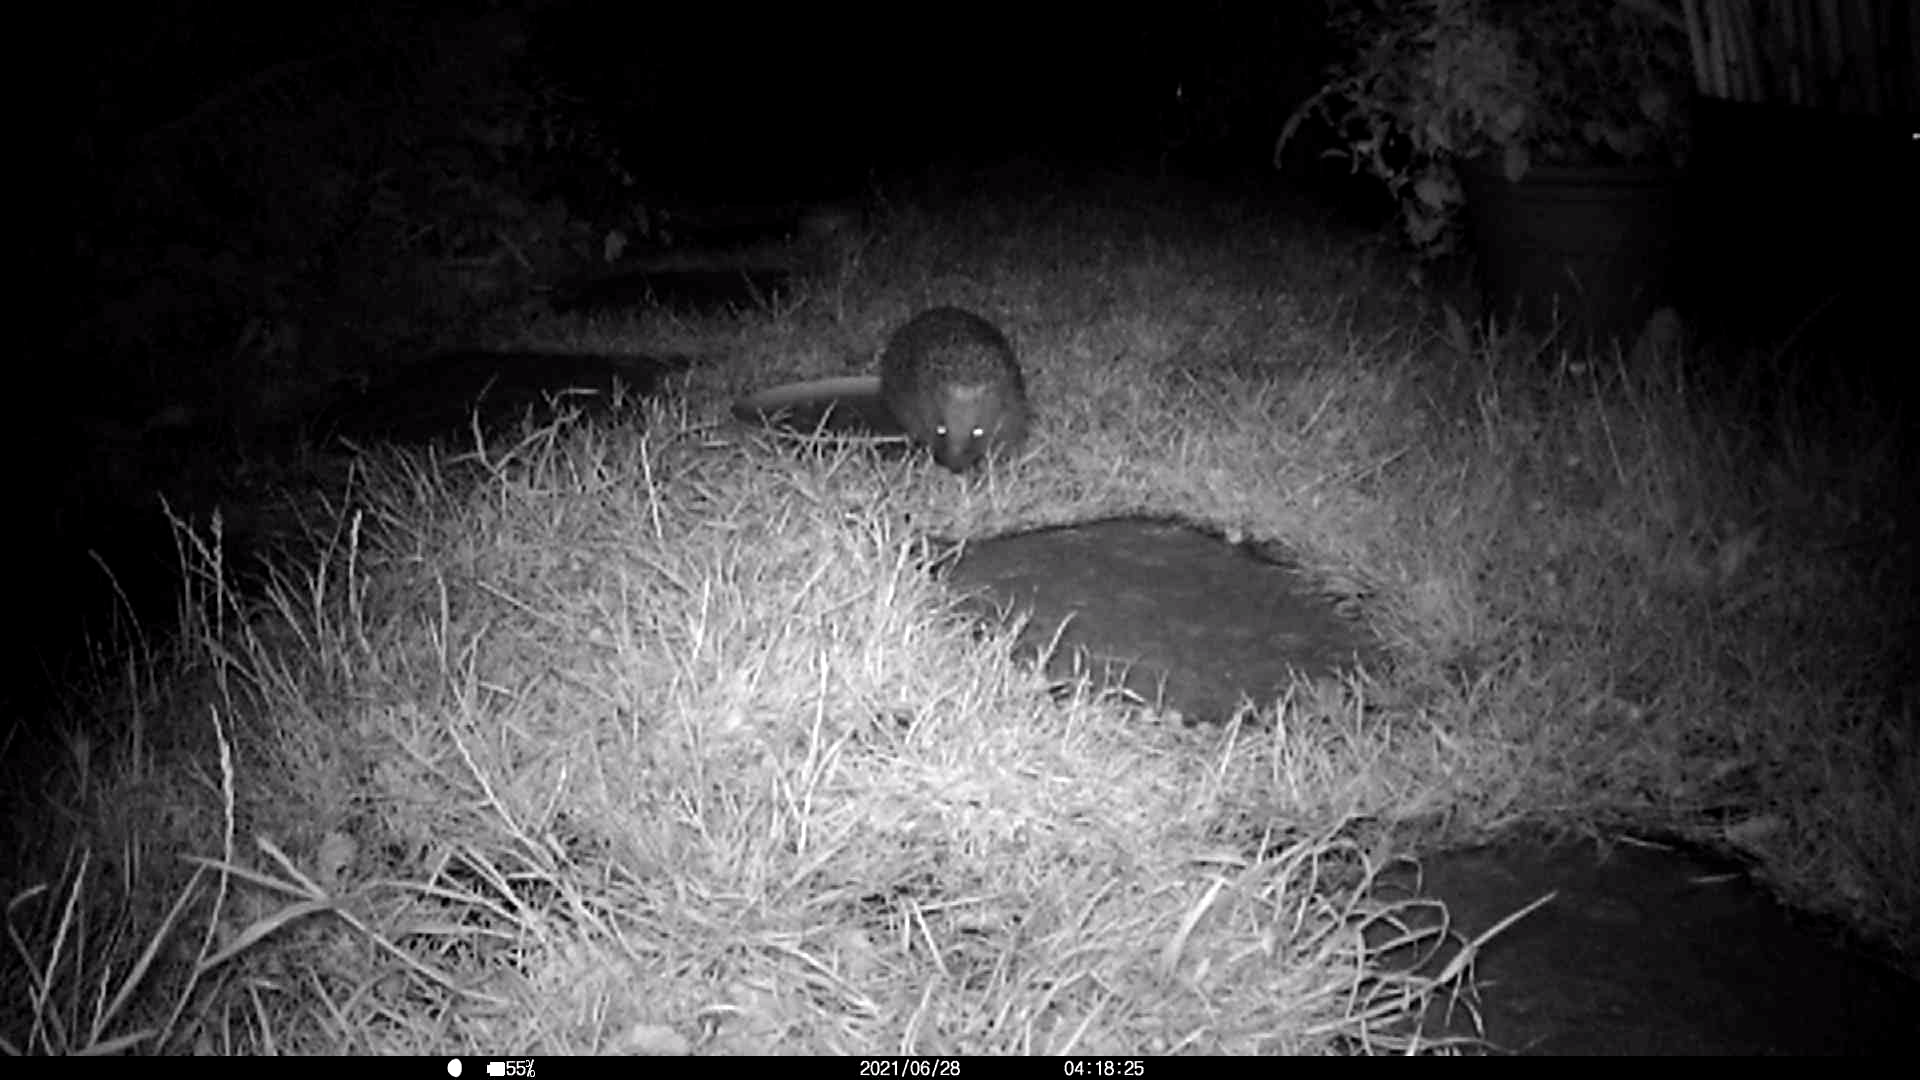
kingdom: Animalia
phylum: Chordata
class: Mammalia
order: Erinaceomorpha
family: Erinaceidae
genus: Erinaceus
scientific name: Erinaceus europaeus
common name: West european hedgehog
